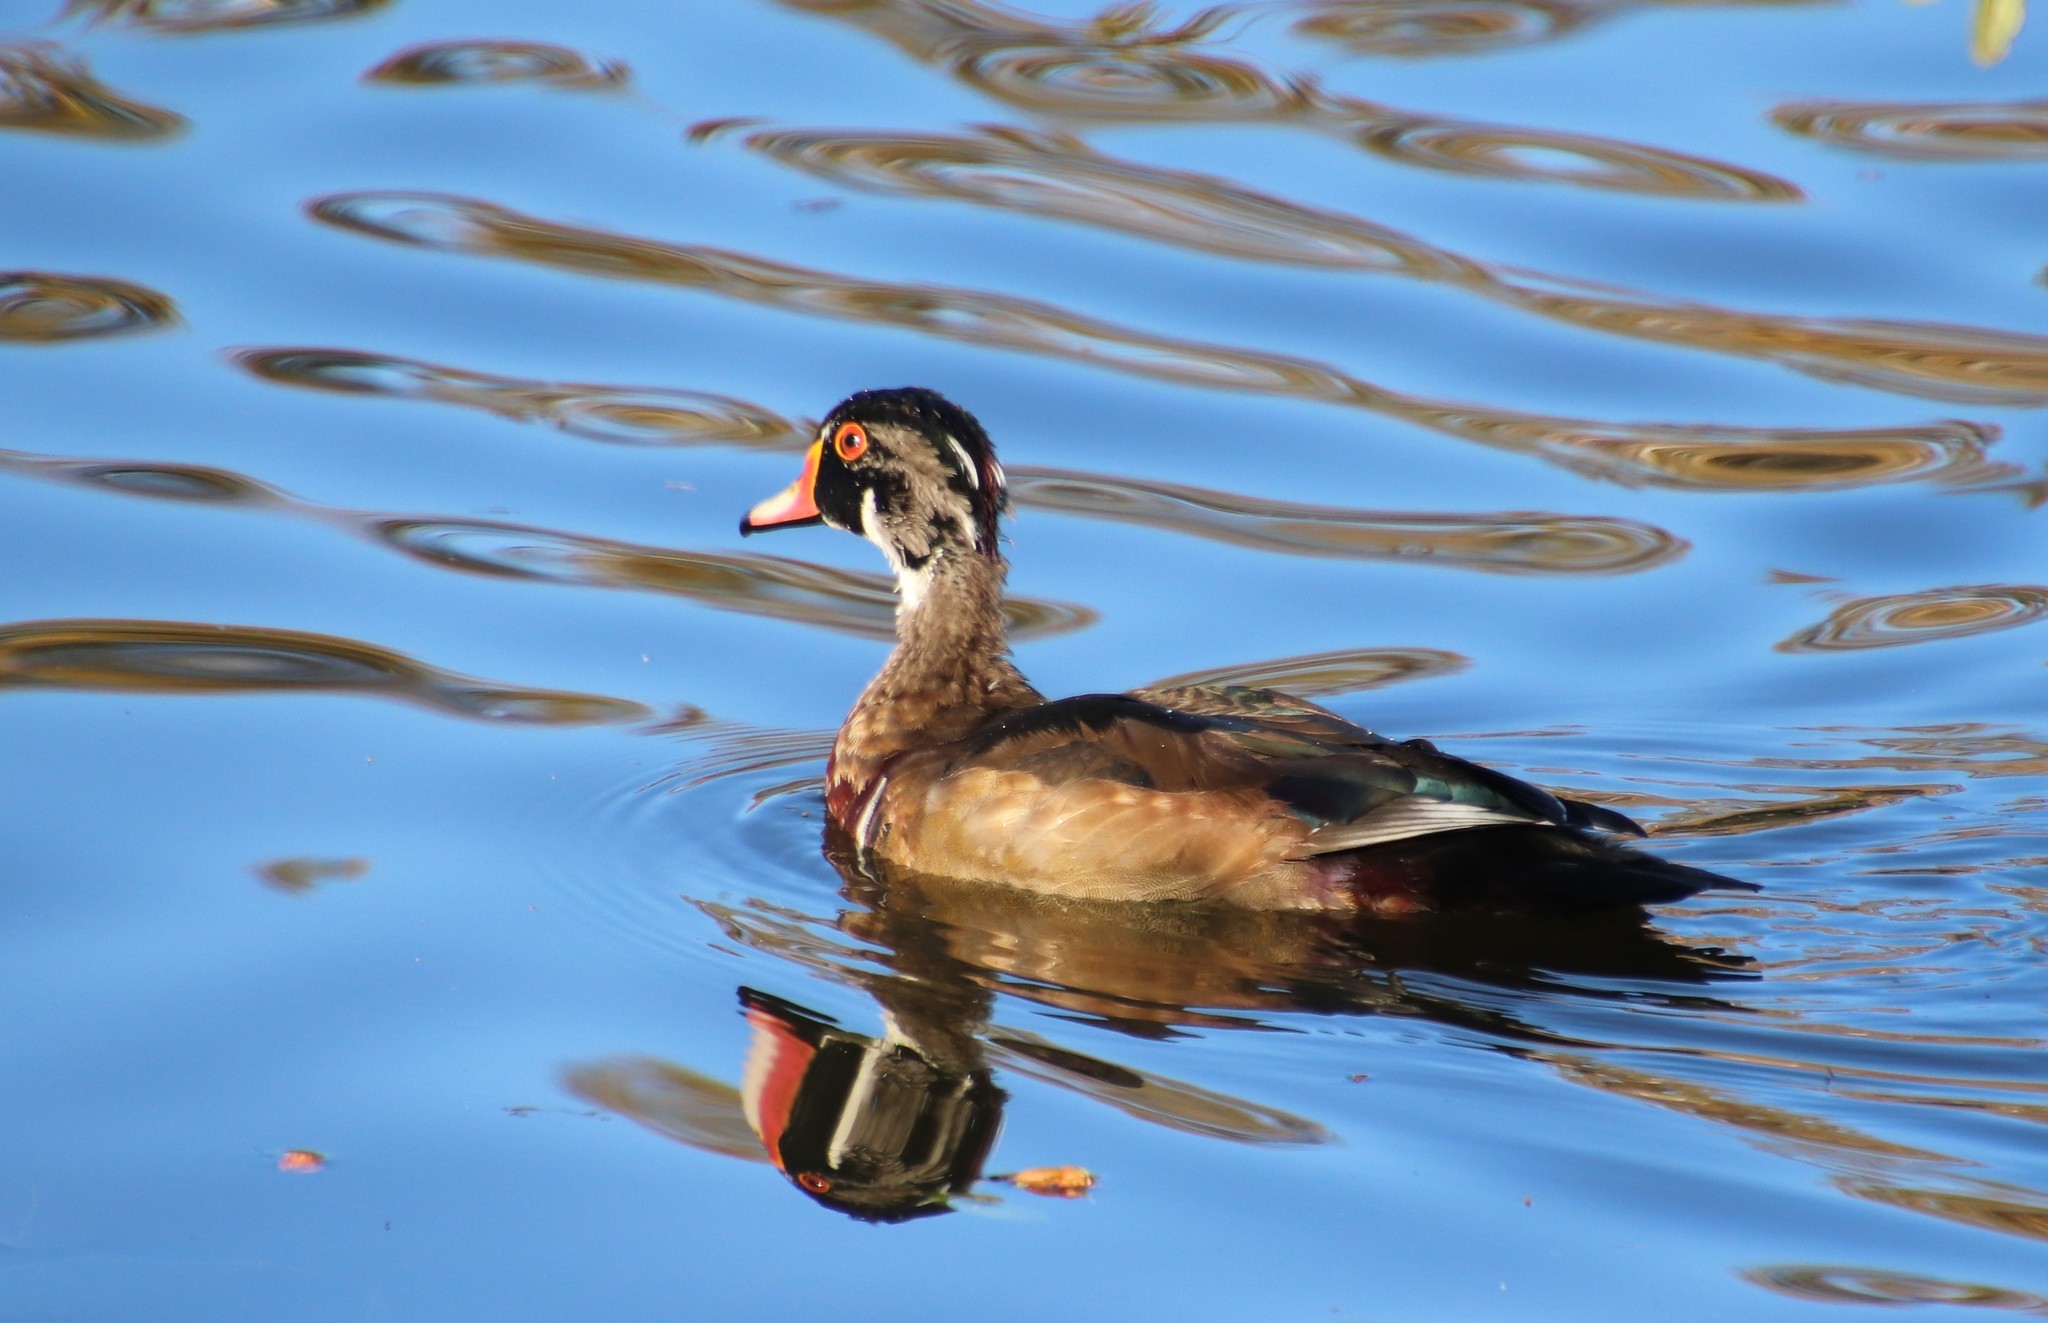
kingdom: Animalia
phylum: Chordata
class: Aves
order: Anseriformes
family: Anatidae
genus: Aix
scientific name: Aix sponsa
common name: Wood duck
